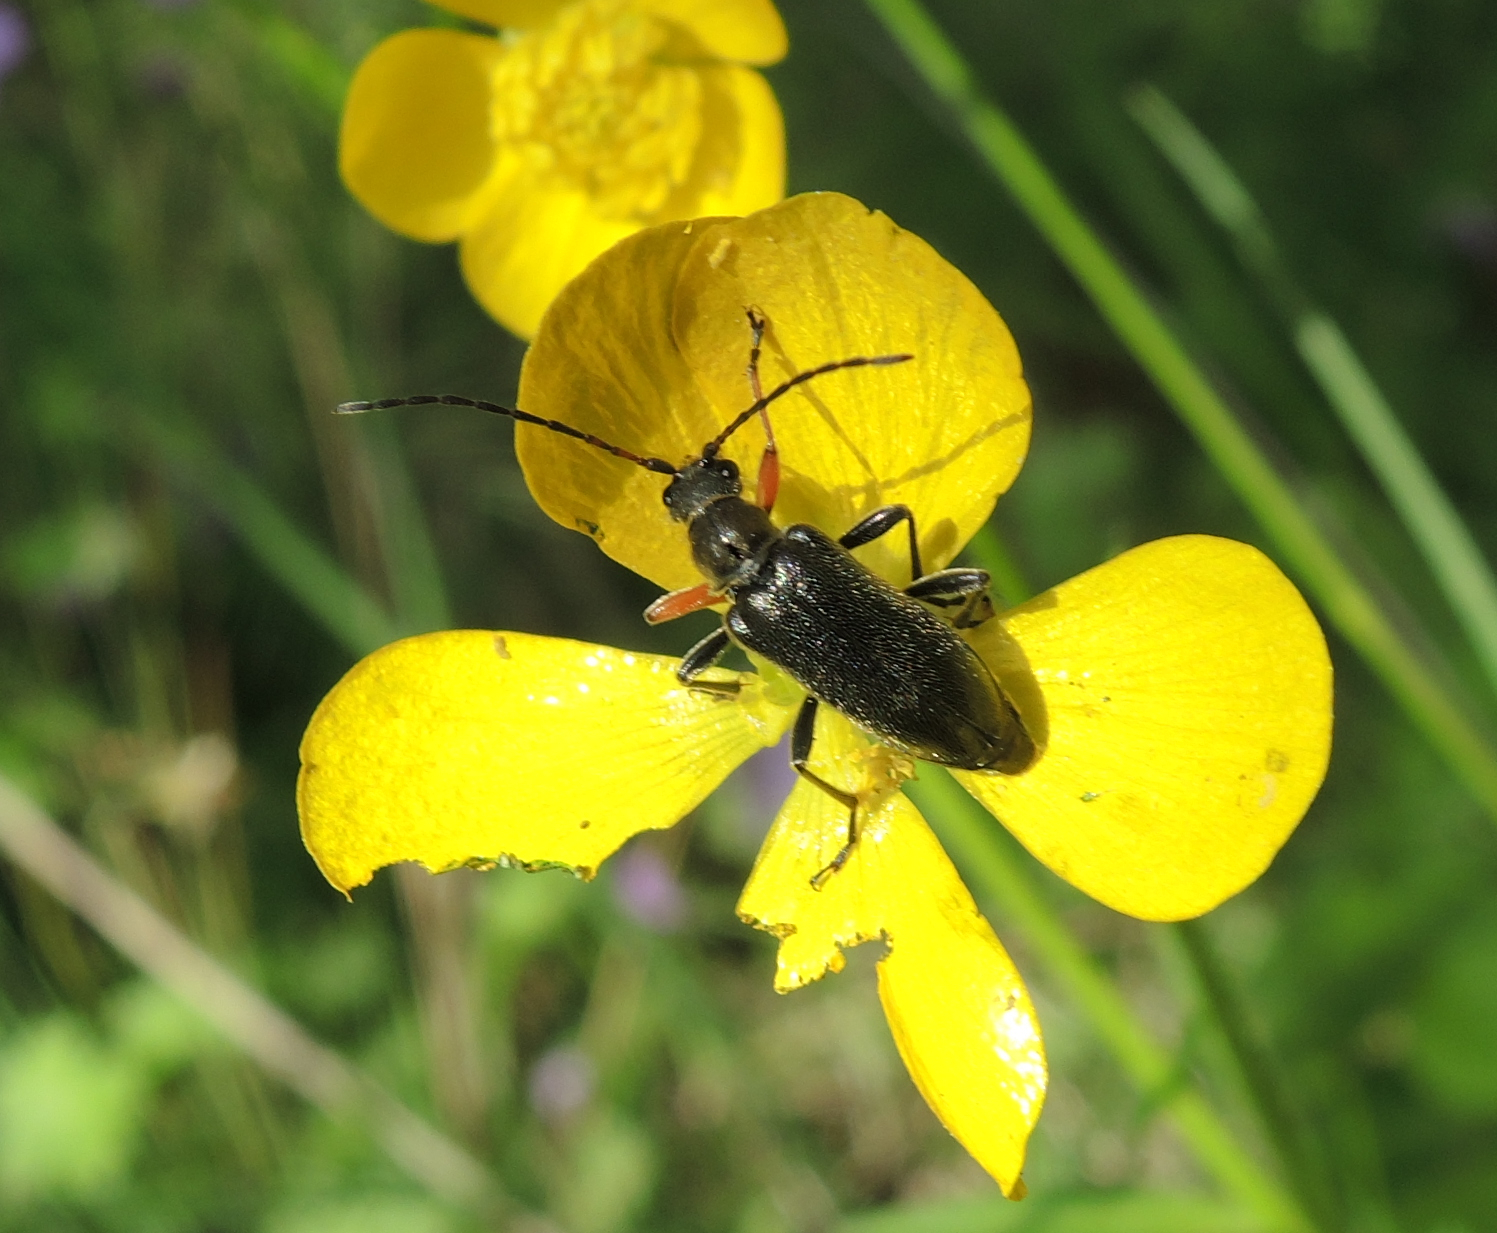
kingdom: Animalia
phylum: Arthropoda
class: Insecta
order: Coleoptera
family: Cerambycidae
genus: Cortodera
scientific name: Cortodera flavimana
